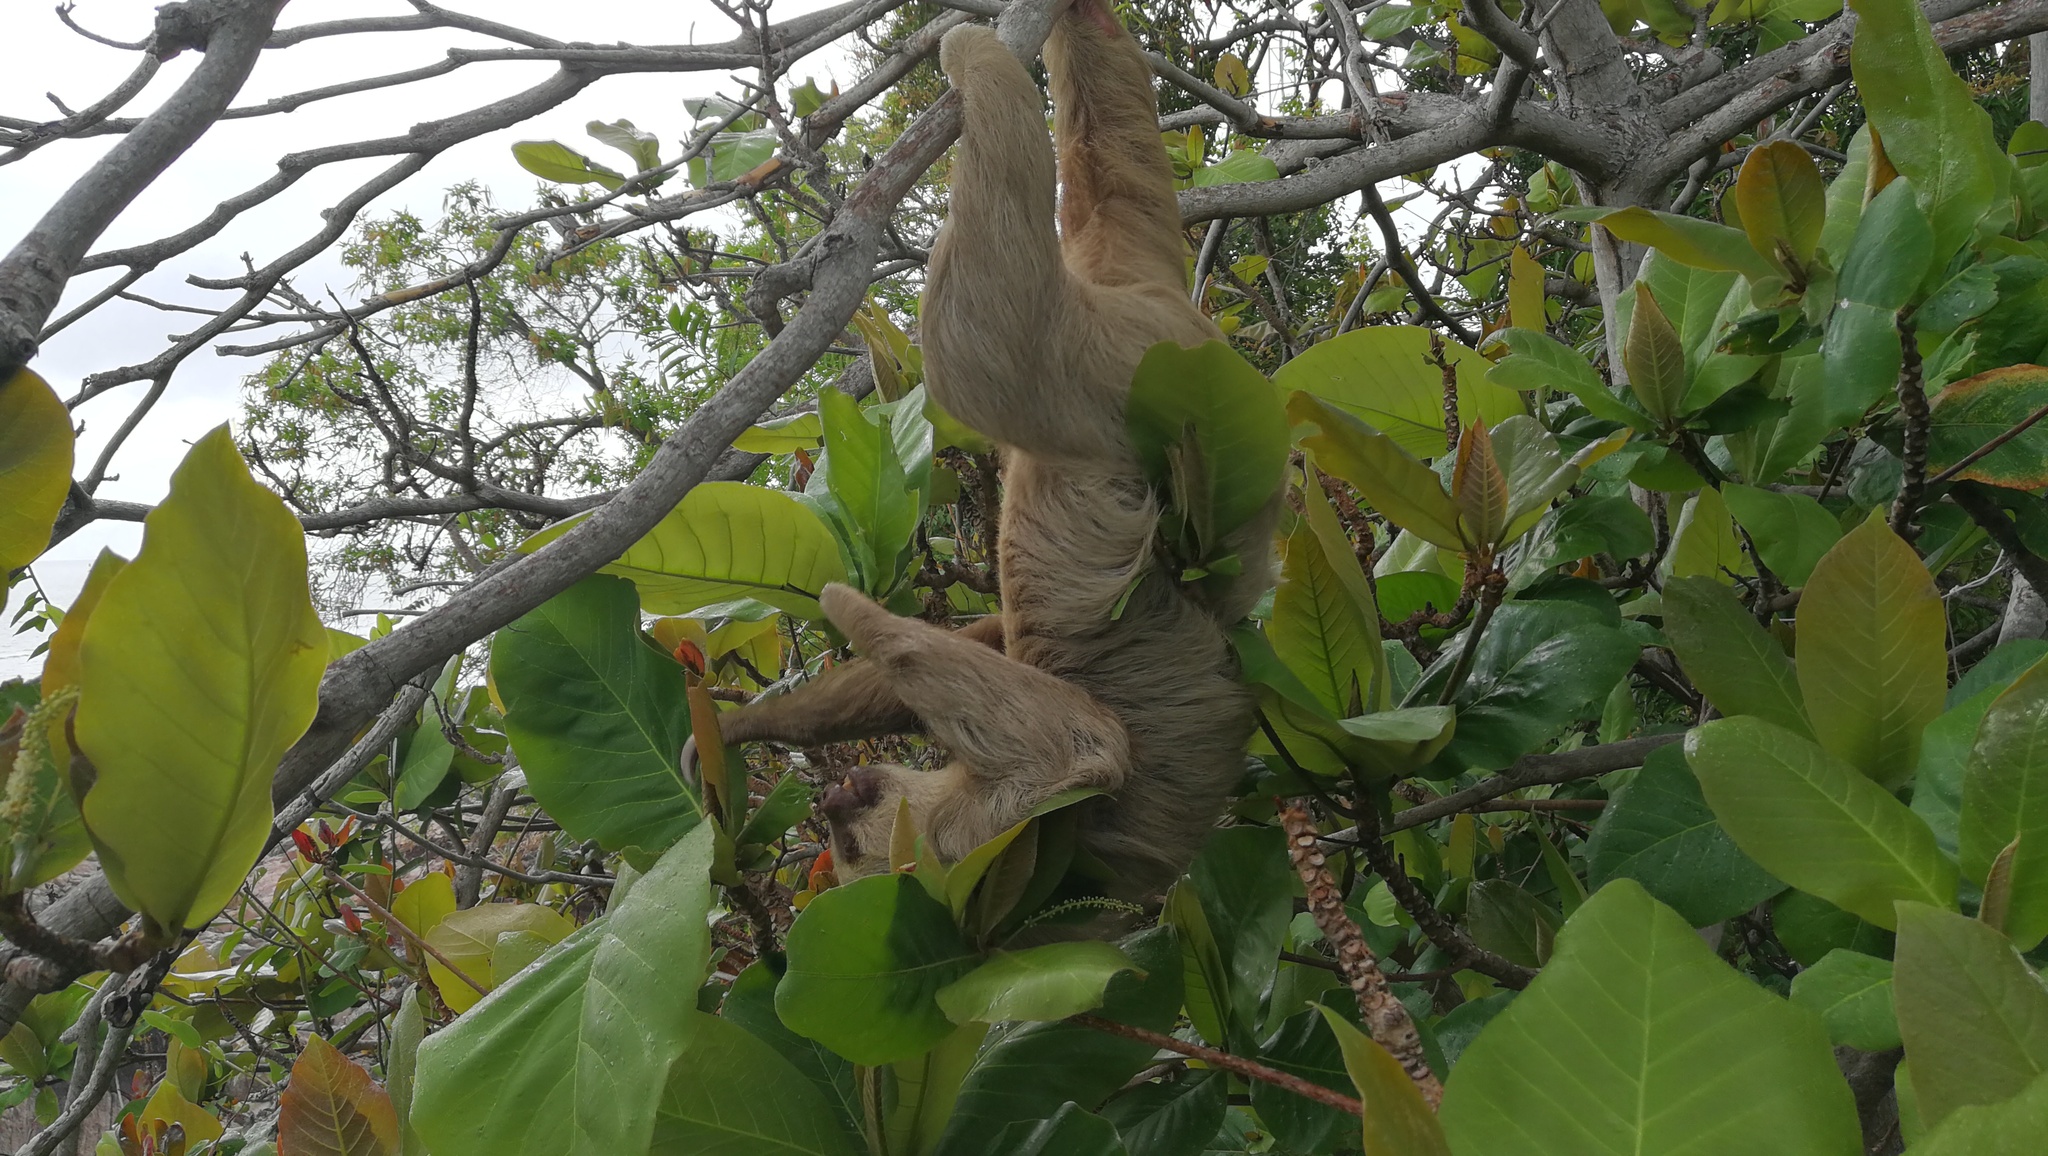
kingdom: Animalia
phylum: Chordata
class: Mammalia
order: Pilosa
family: Megalonychidae
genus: Choloepus
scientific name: Choloepus hoffmanni
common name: Hoffmann's two-toed sloth
